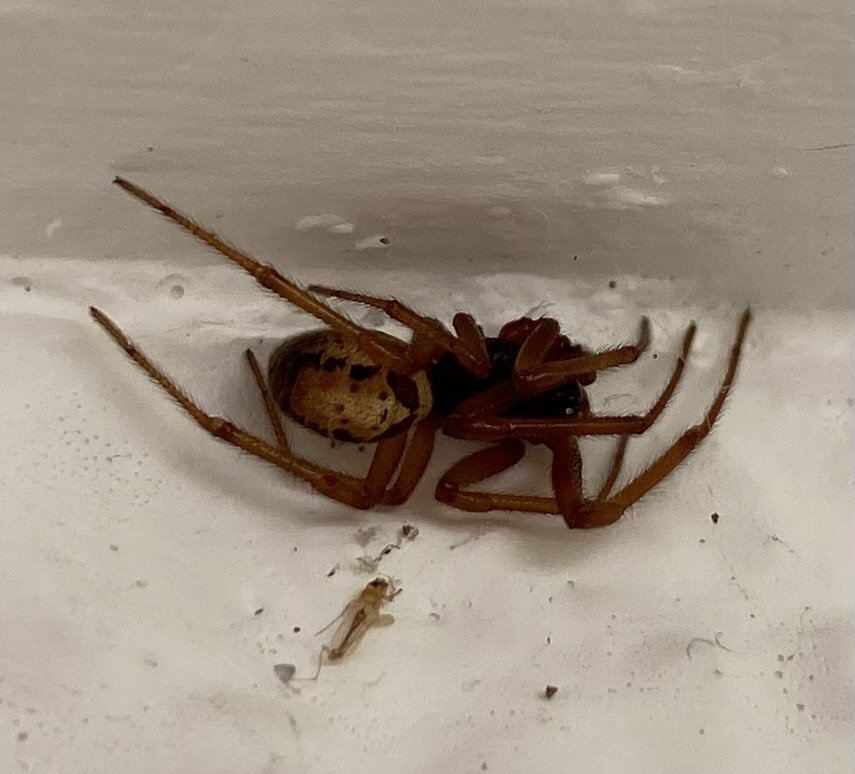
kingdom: Animalia
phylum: Arthropoda
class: Arachnida
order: Araneae
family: Theridiidae
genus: Steatoda
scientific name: Steatoda nobilis
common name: Cobweb weaver
